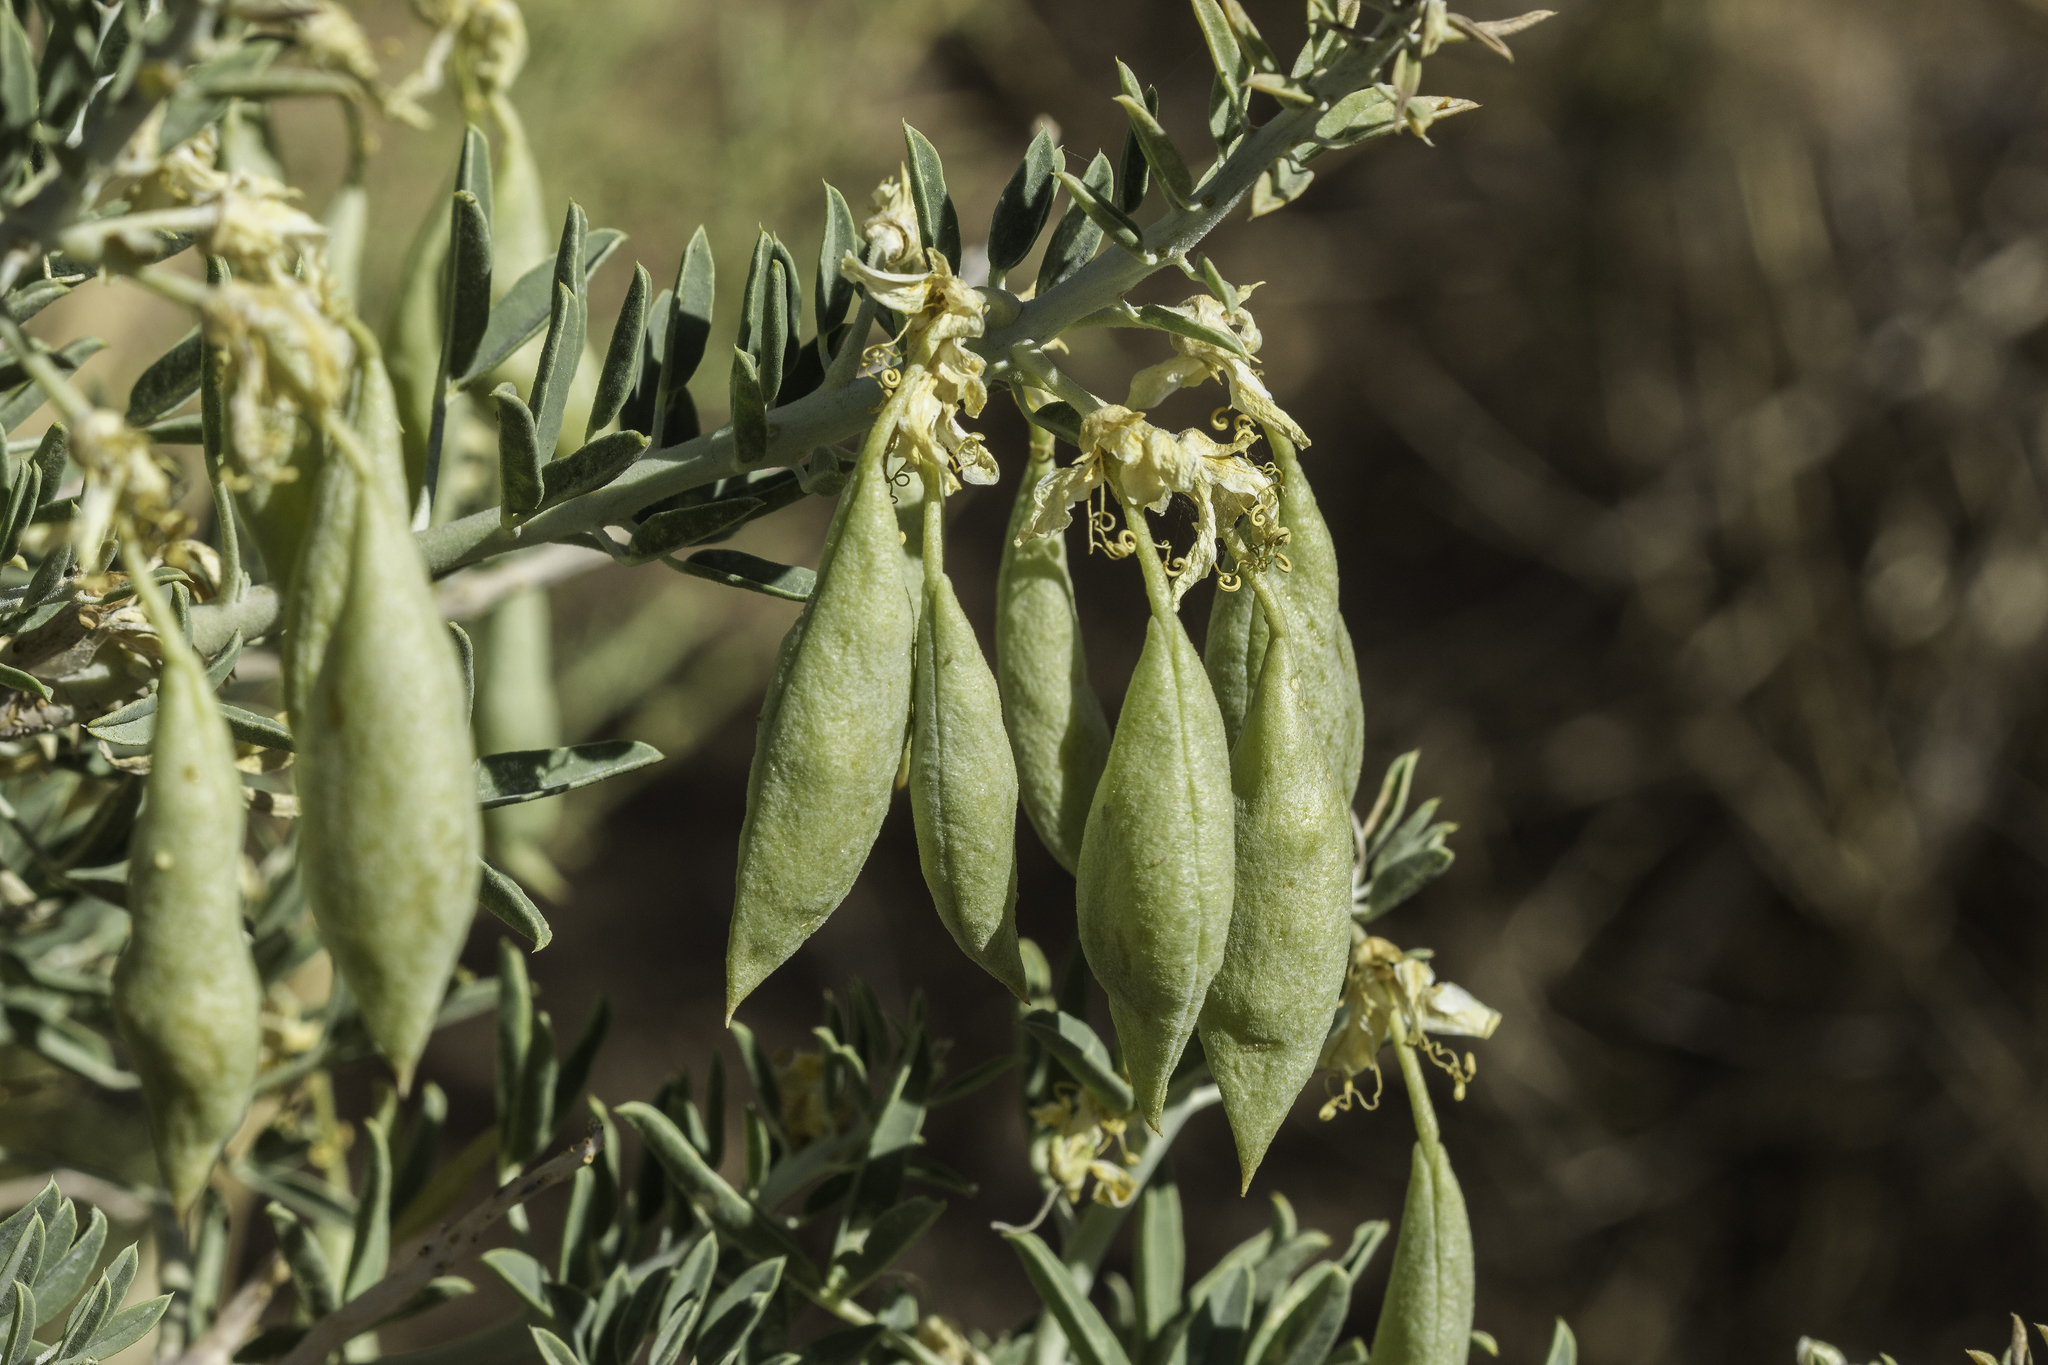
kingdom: Plantae
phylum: Tracheophyta
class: Magnoliopsida
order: Brassicales
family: Cleomaceae
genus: Cleomella
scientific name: Cleomella arborea
